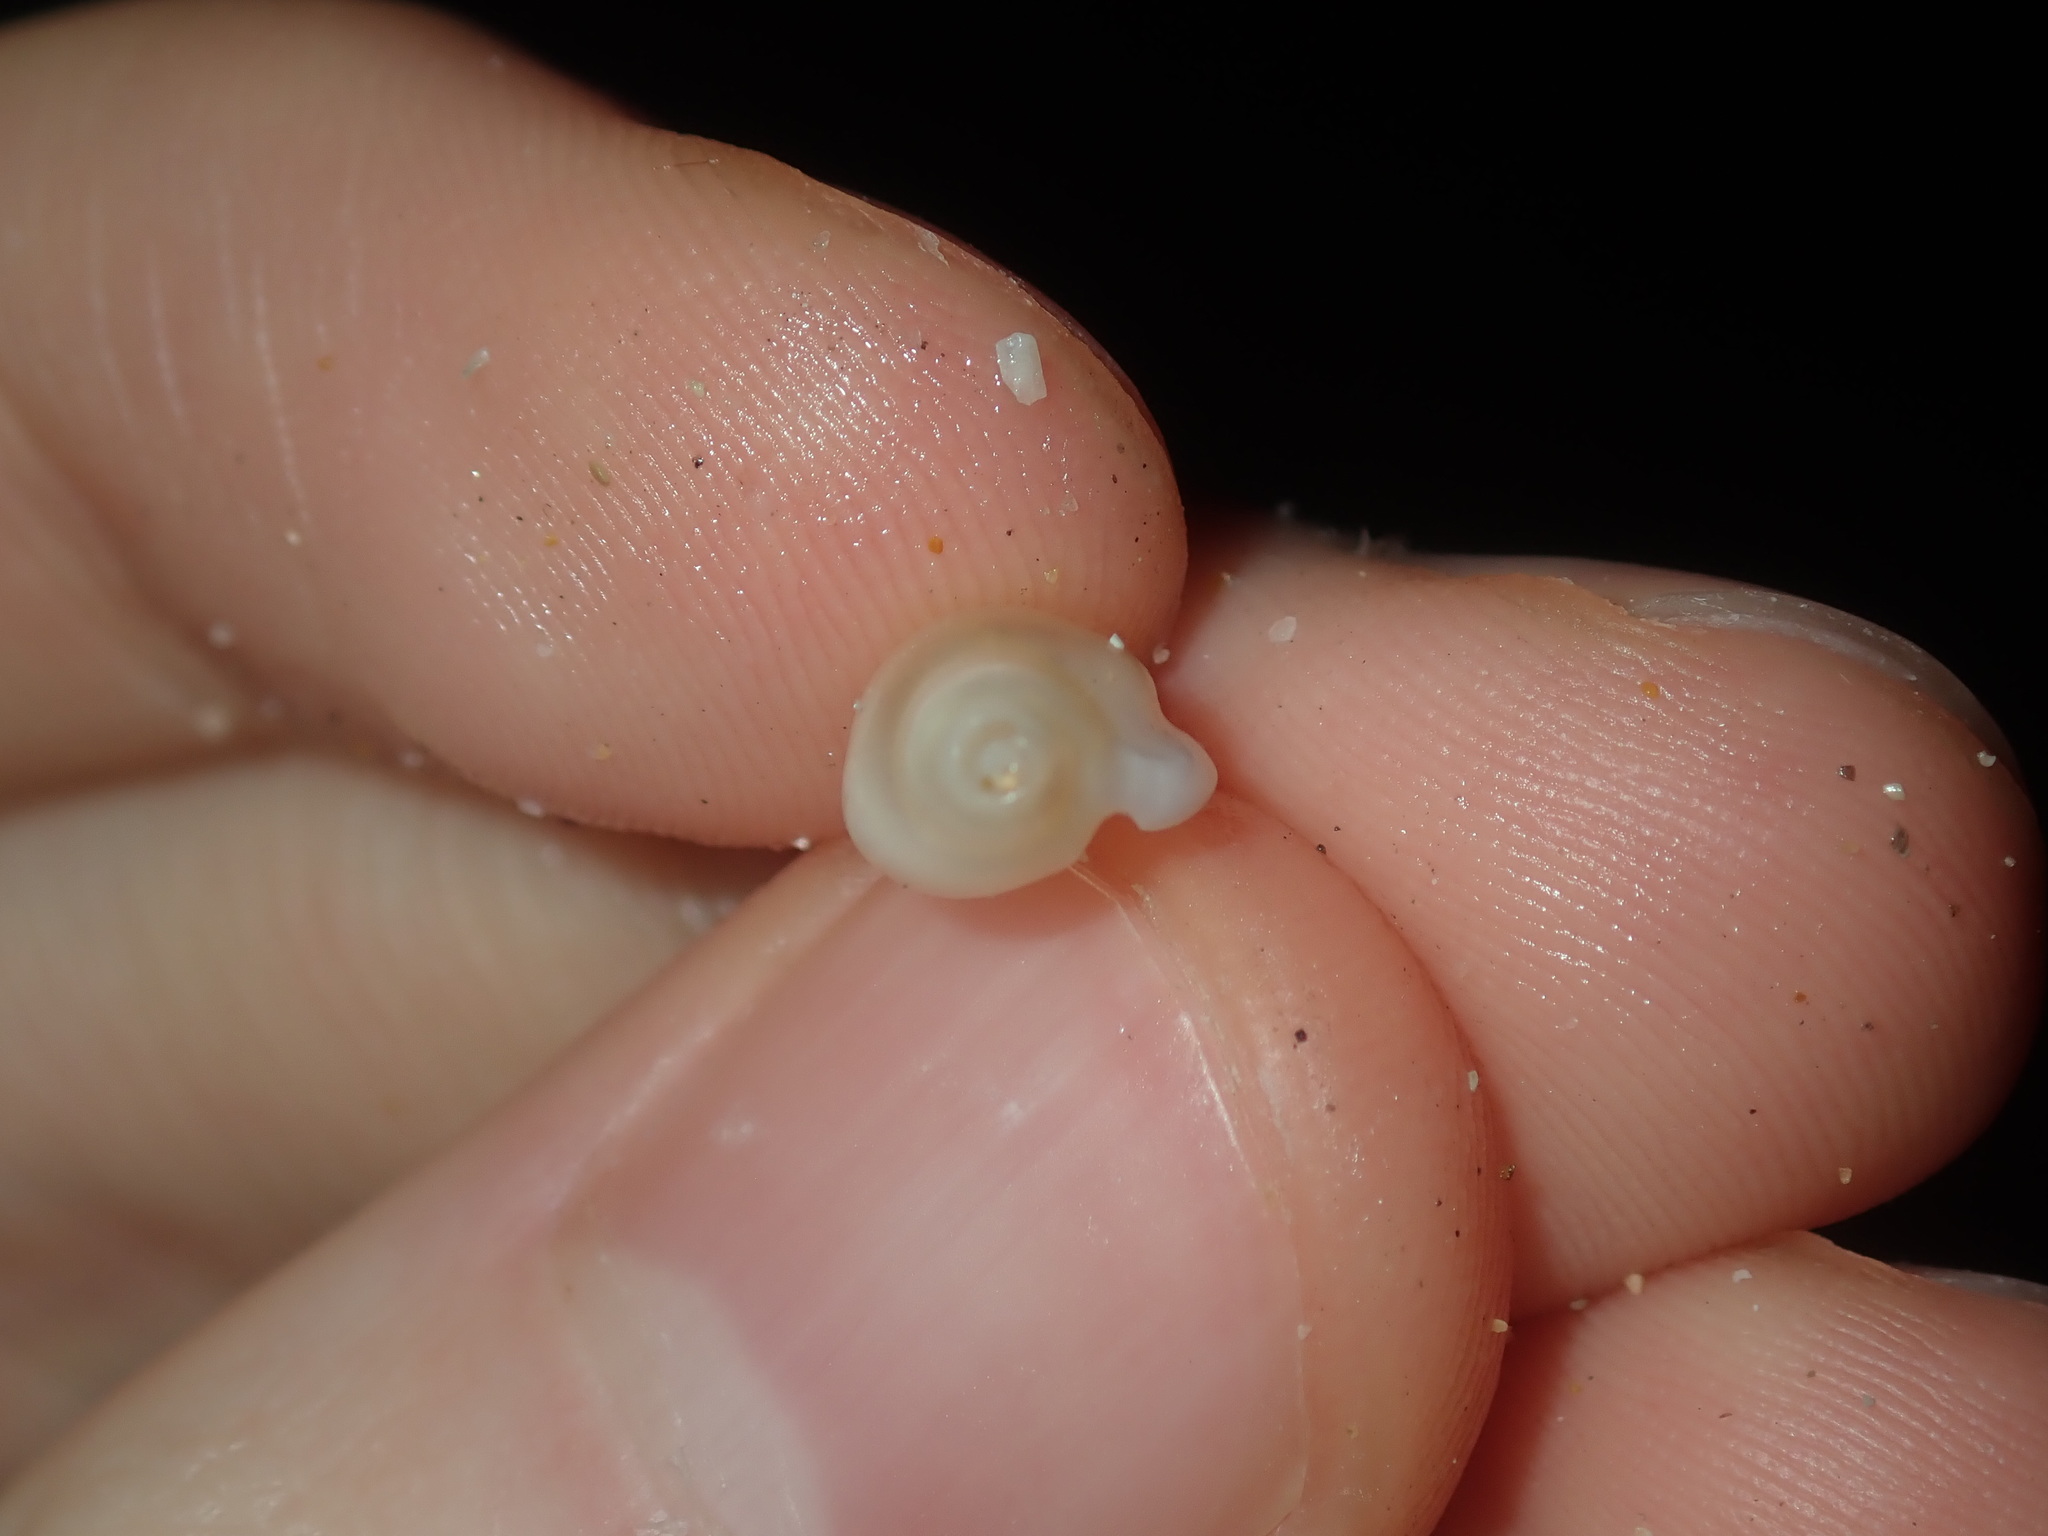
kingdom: Animalia
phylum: Mollusca
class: Gastropoda
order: Neogastropoda
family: Marginellidae
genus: Austroginella
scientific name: Austroginella muscaria
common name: Fly marginella
